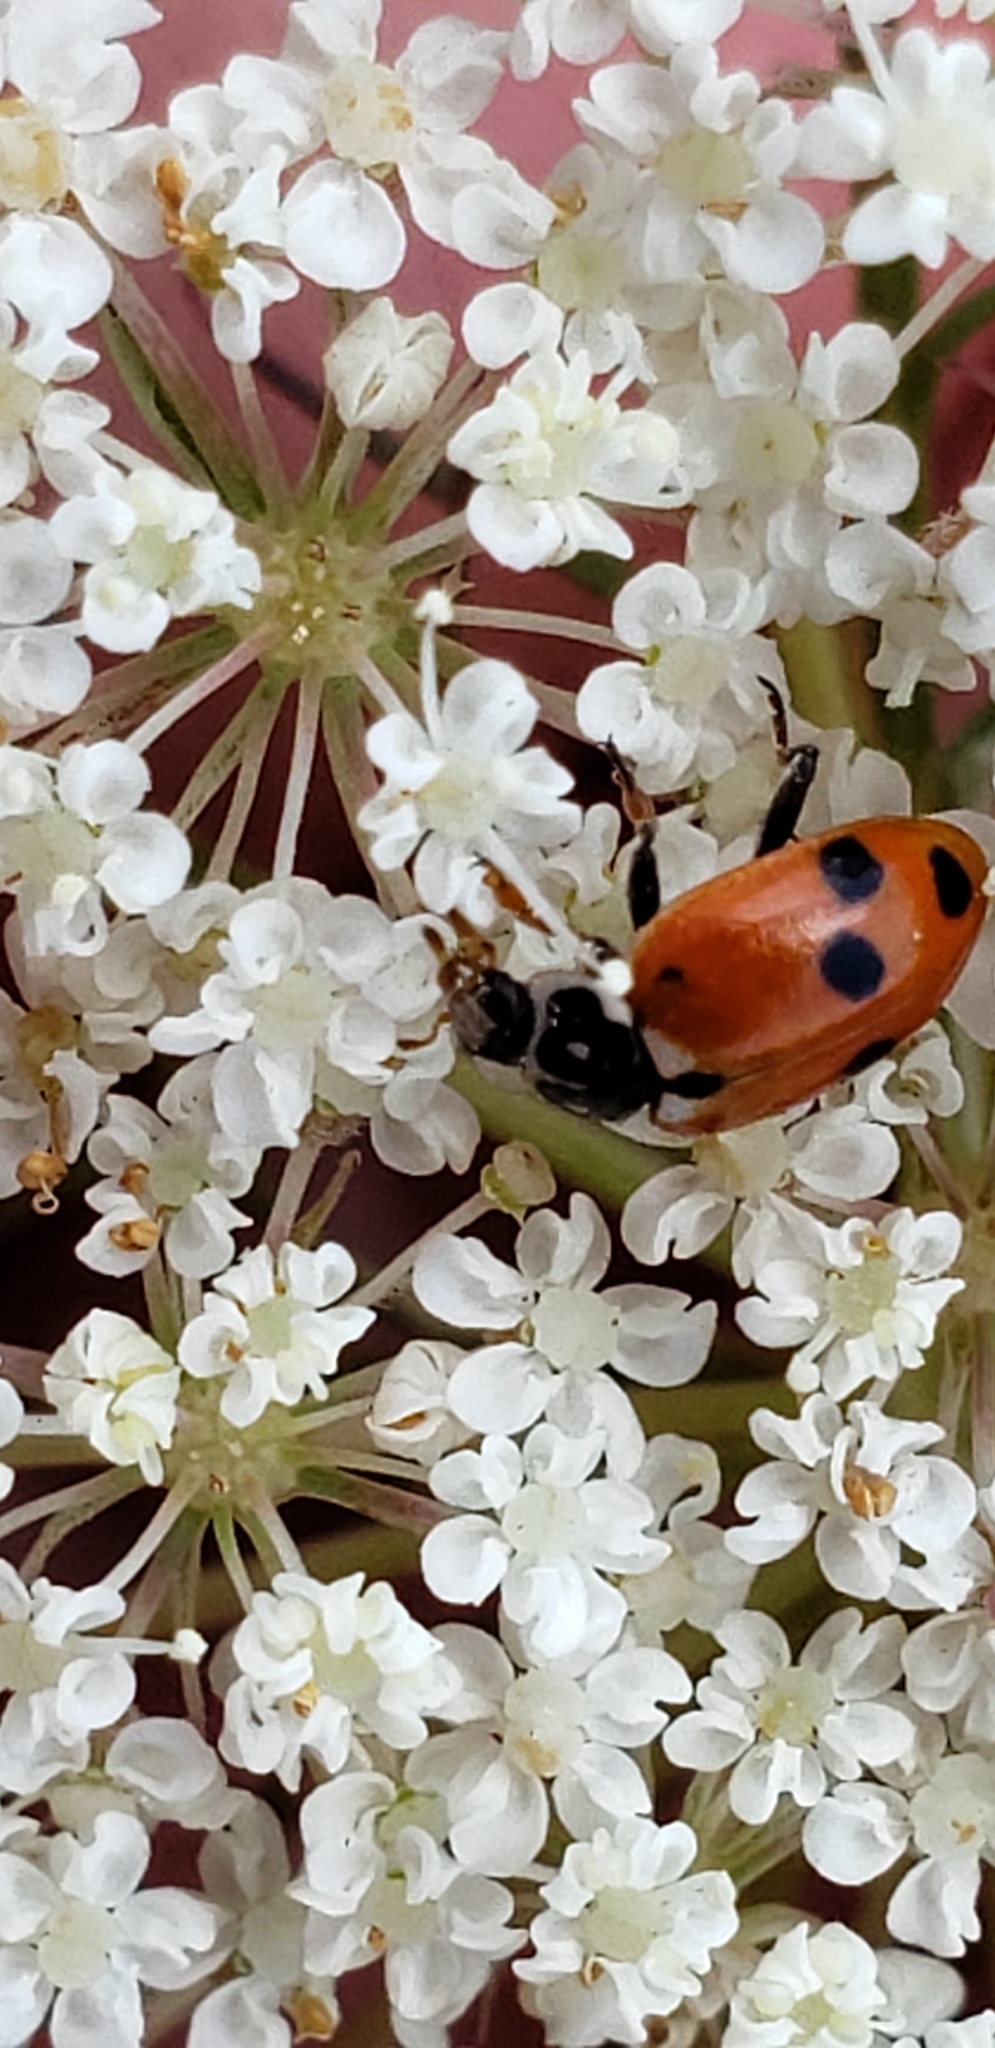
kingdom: Animalia
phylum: Arthropoda
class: Insecta
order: Coleoptera
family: Coccinellidae
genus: Hippodamia
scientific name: Hippodamia variegata
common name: Ladybird beetle
